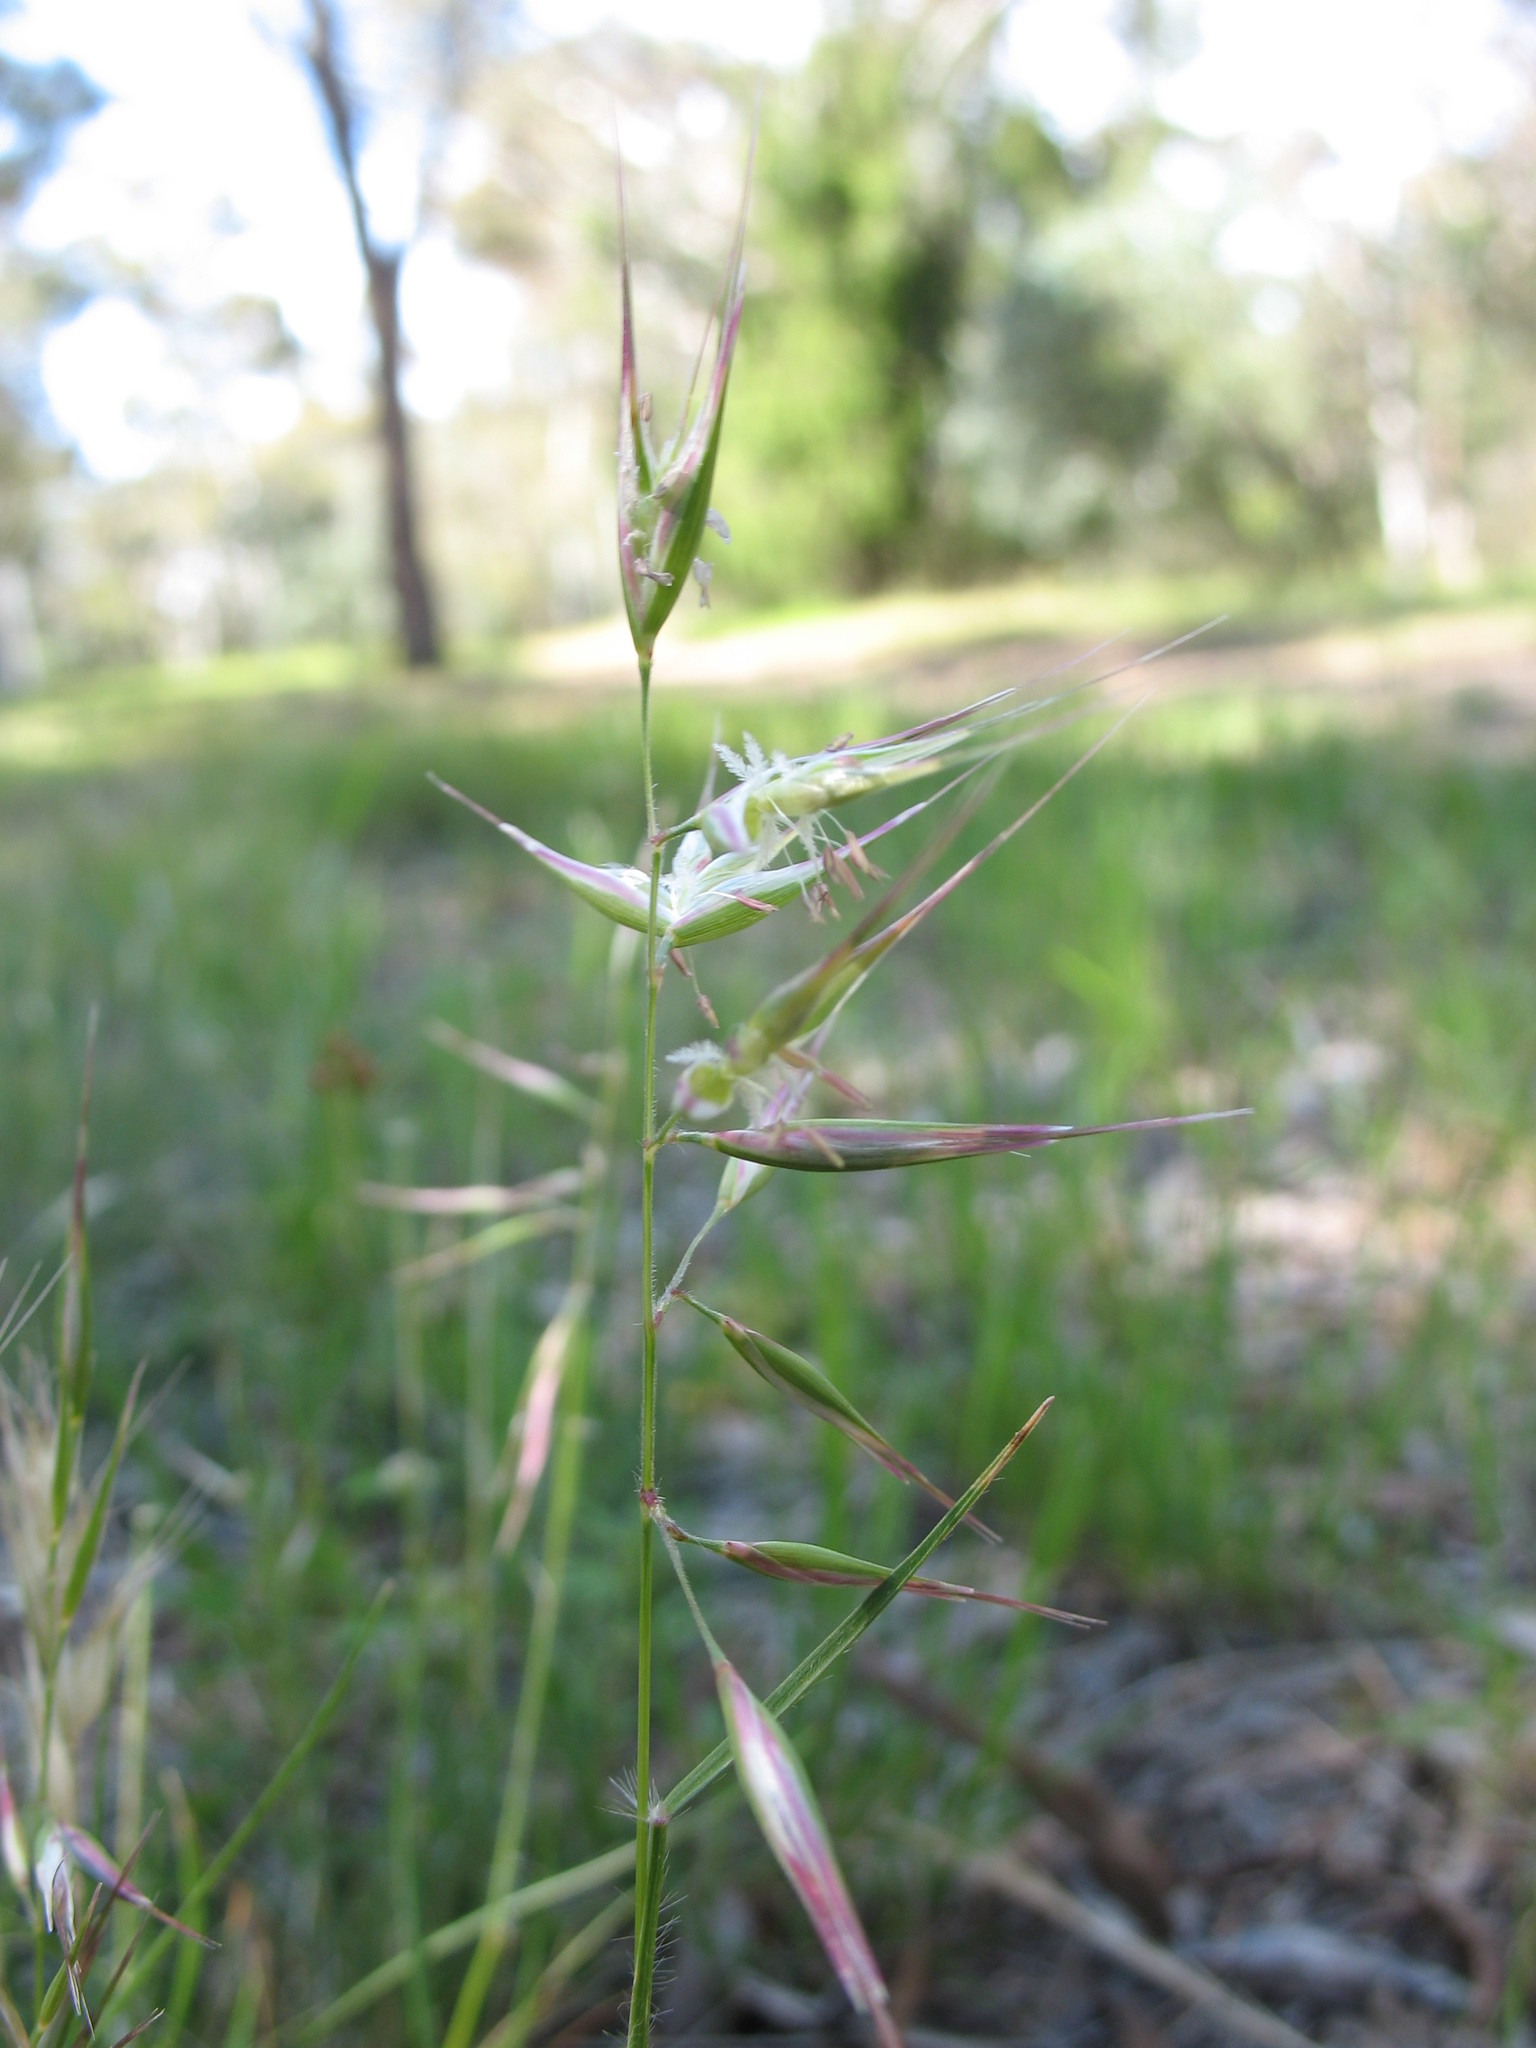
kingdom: Plantae
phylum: Tracheophyta
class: Liliopsida
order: Poales
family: Poaceae
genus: Rytidosperma
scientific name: Rytidosperma erianthum
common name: Hill wallaby grass
